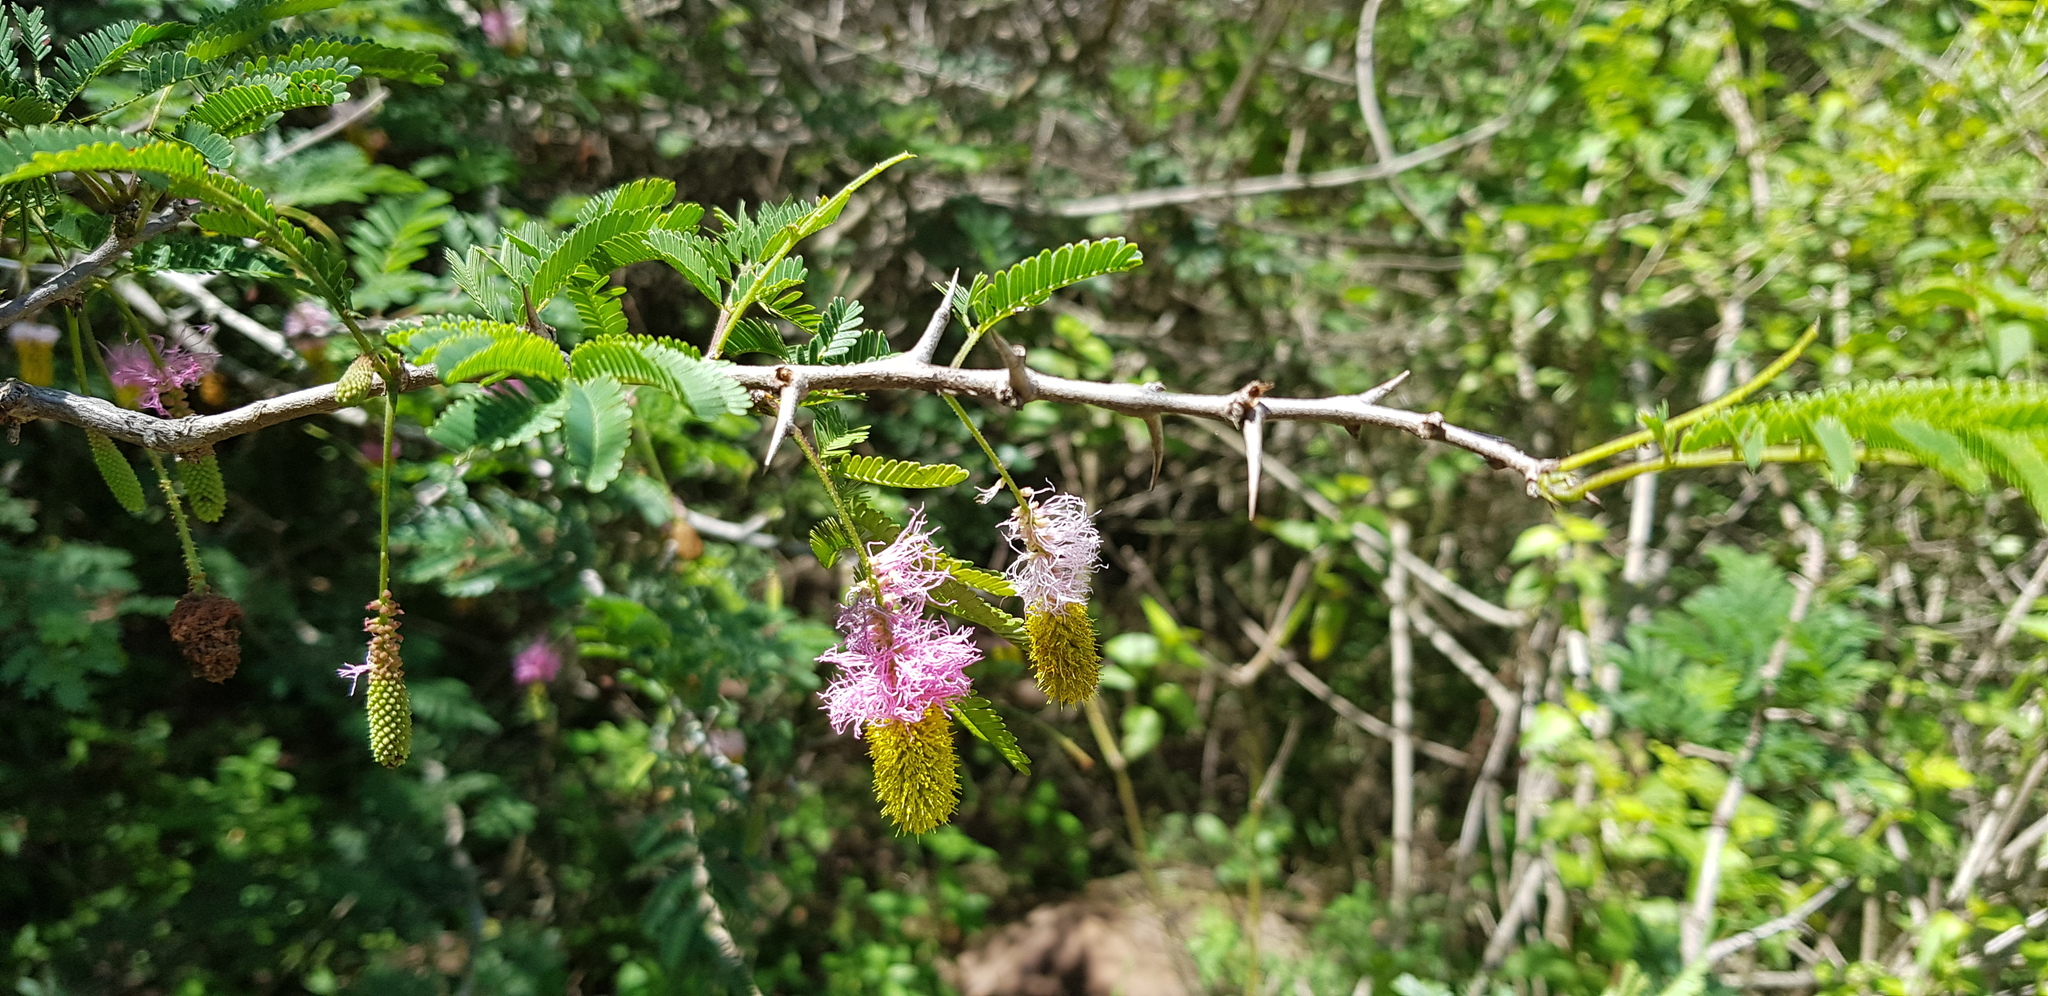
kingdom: Plantae
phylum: Tracheophyta
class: Magnoliopsida
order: Fabales
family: Fabaceae
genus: Dichrostachys
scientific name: Dichrostachys cinerea
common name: Sicklebush
